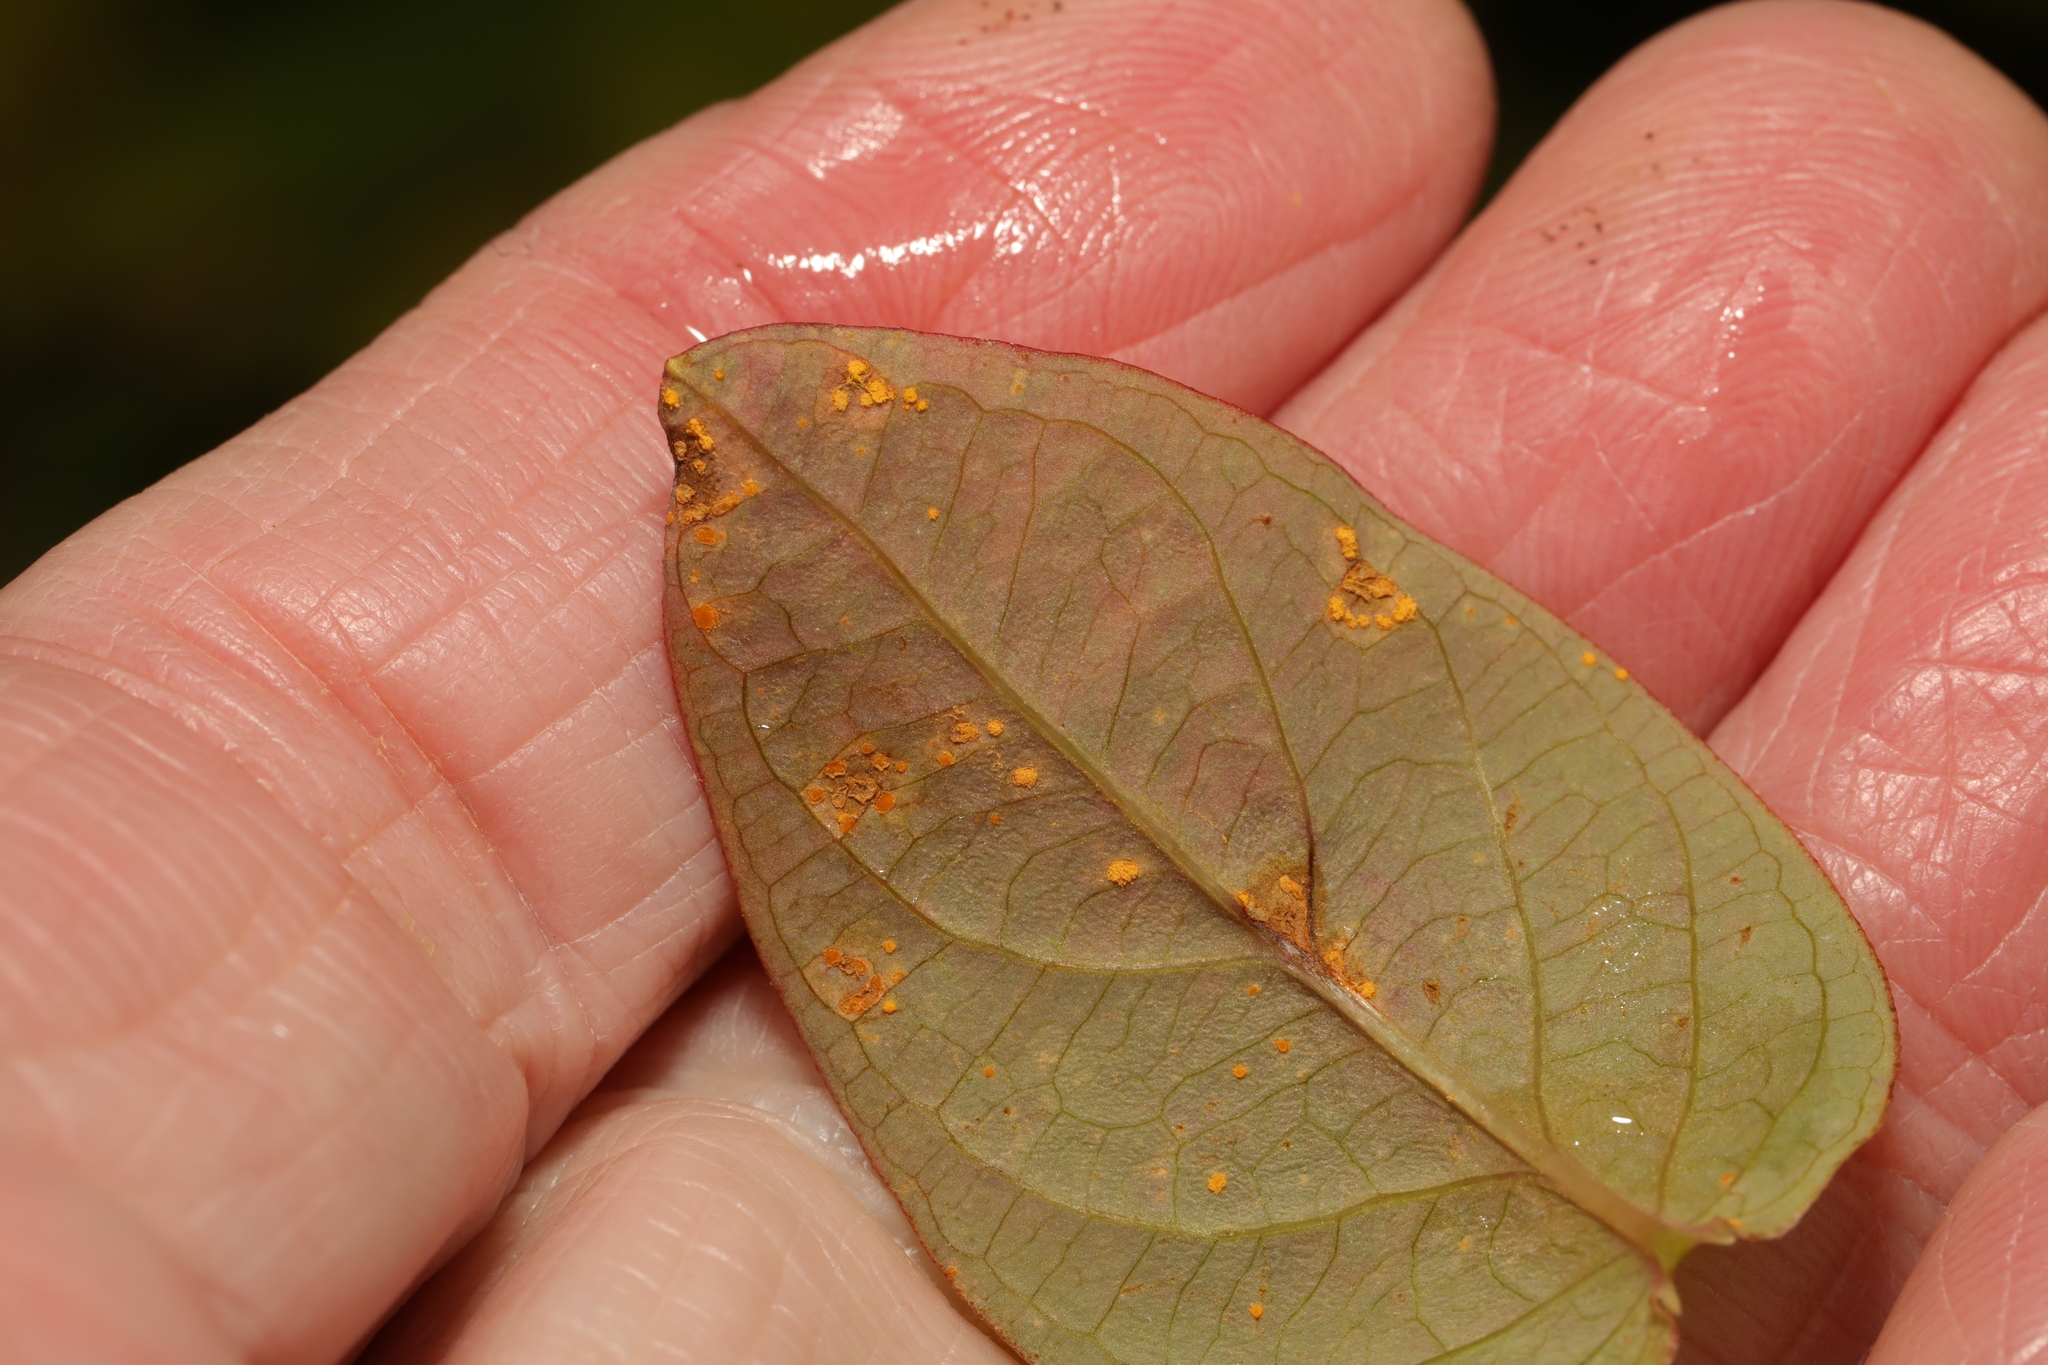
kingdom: Fungi
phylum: Basidiomycota
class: Pucciniomycetes
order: Pucciniales
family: Melampsoraceae
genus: Melampsora
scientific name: Melampsora
